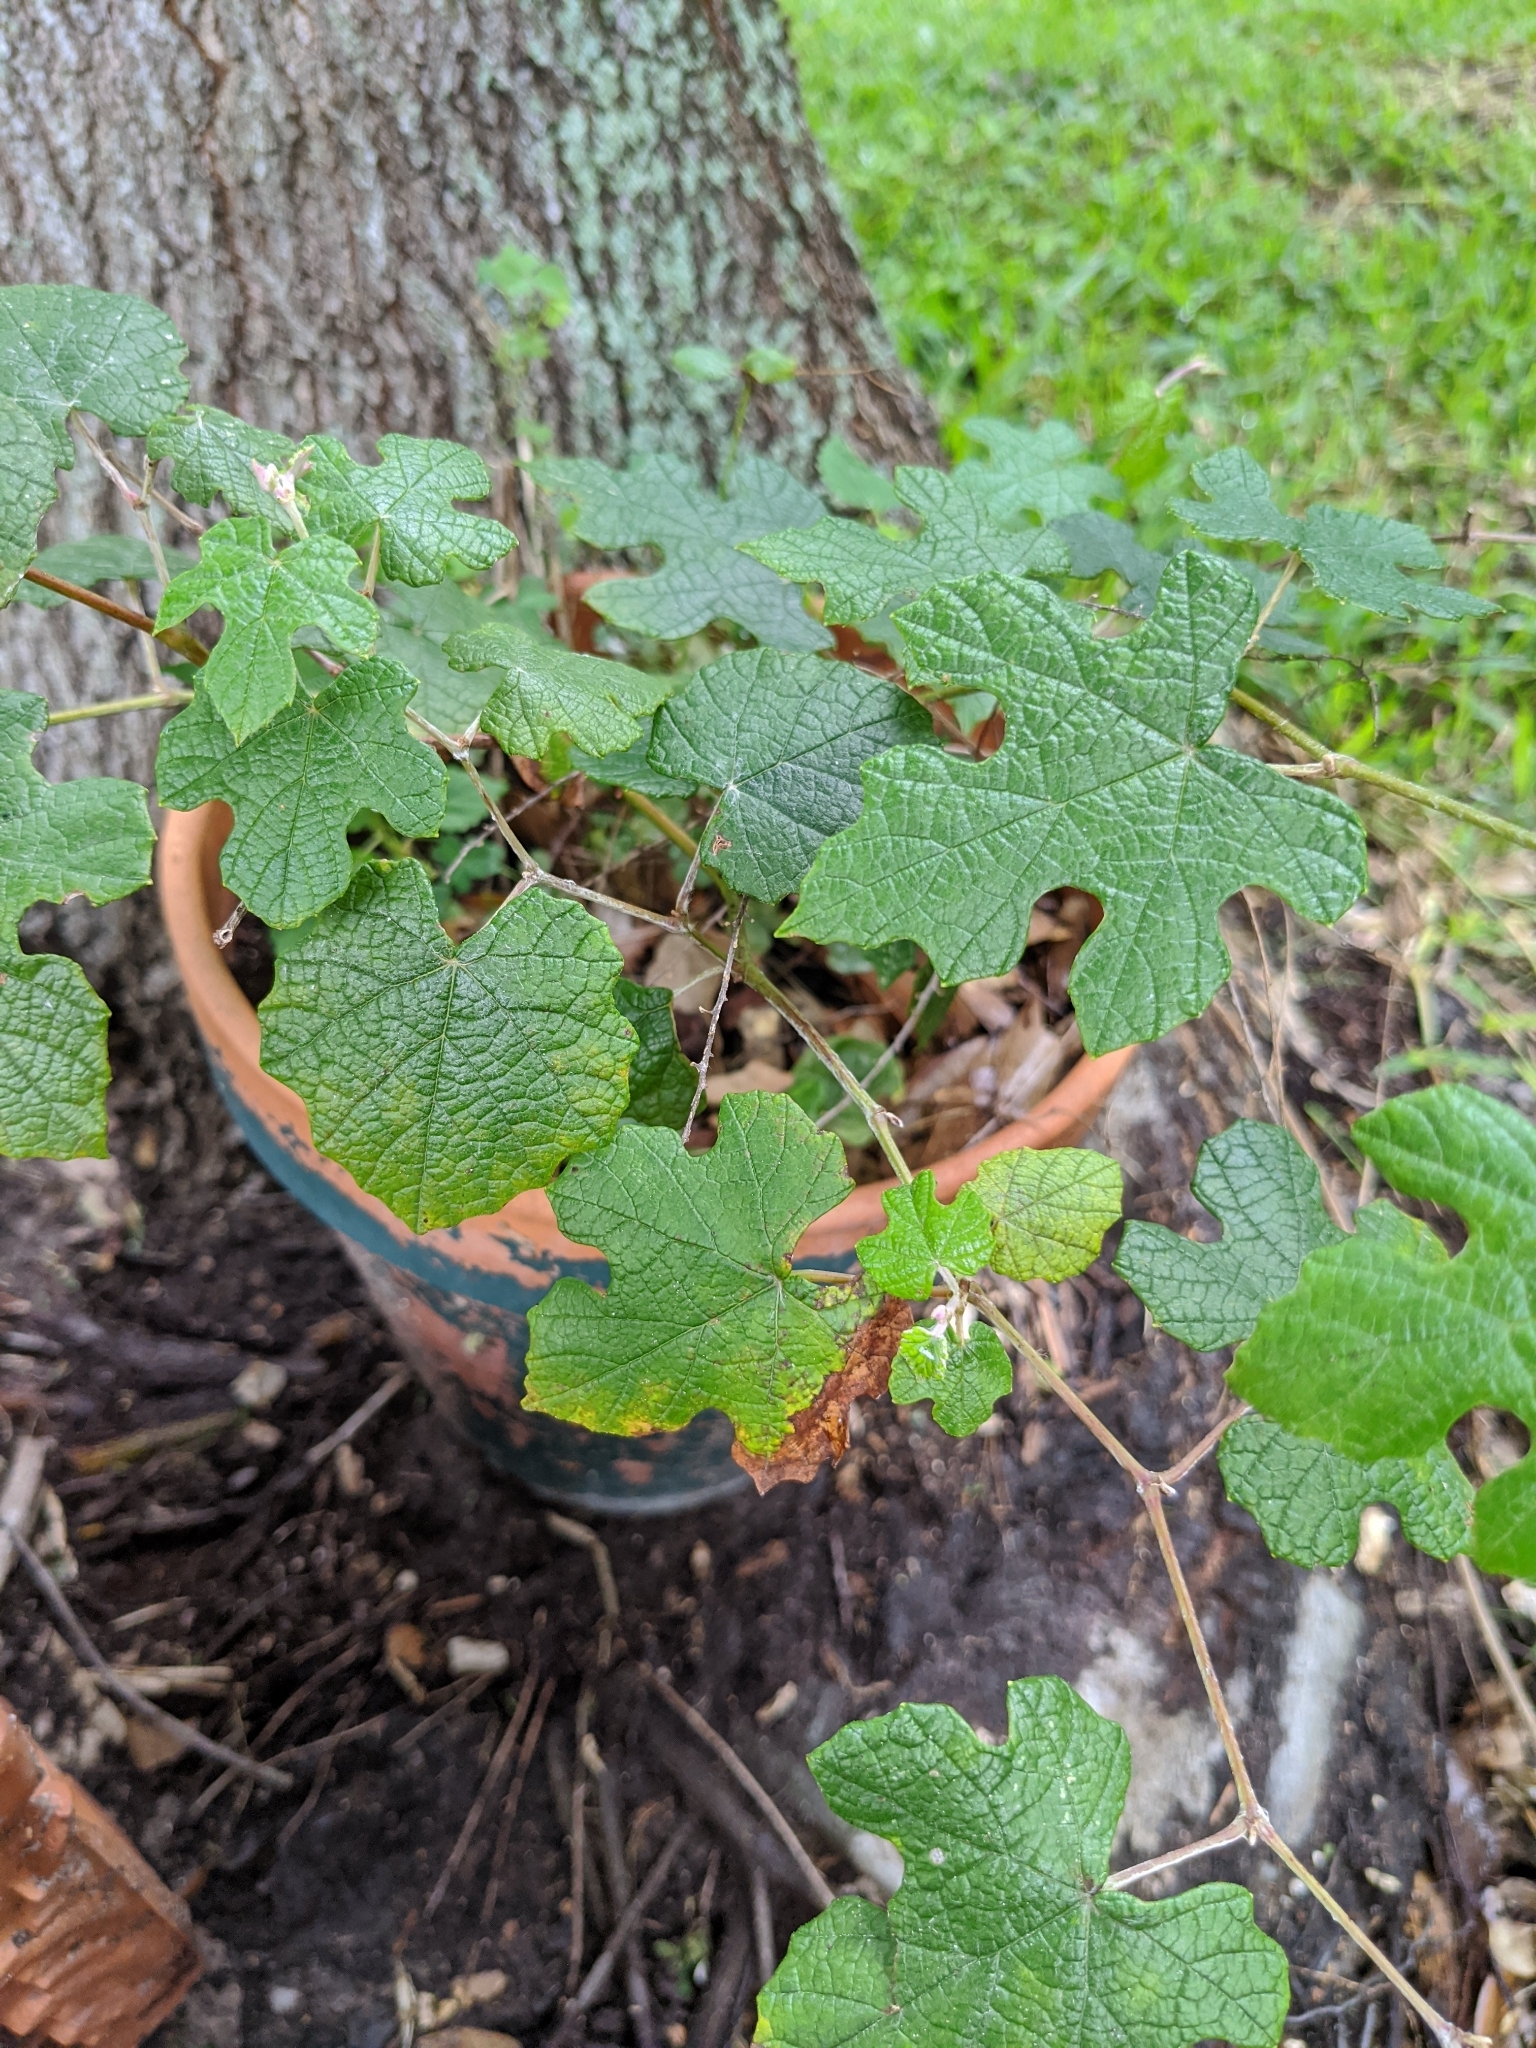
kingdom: Plantae
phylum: Tracheophyta
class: Magnoliopsida
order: Vitales
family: Vitaceae
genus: Vitis
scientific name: Vitis mustangensis
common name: Mustang grape
